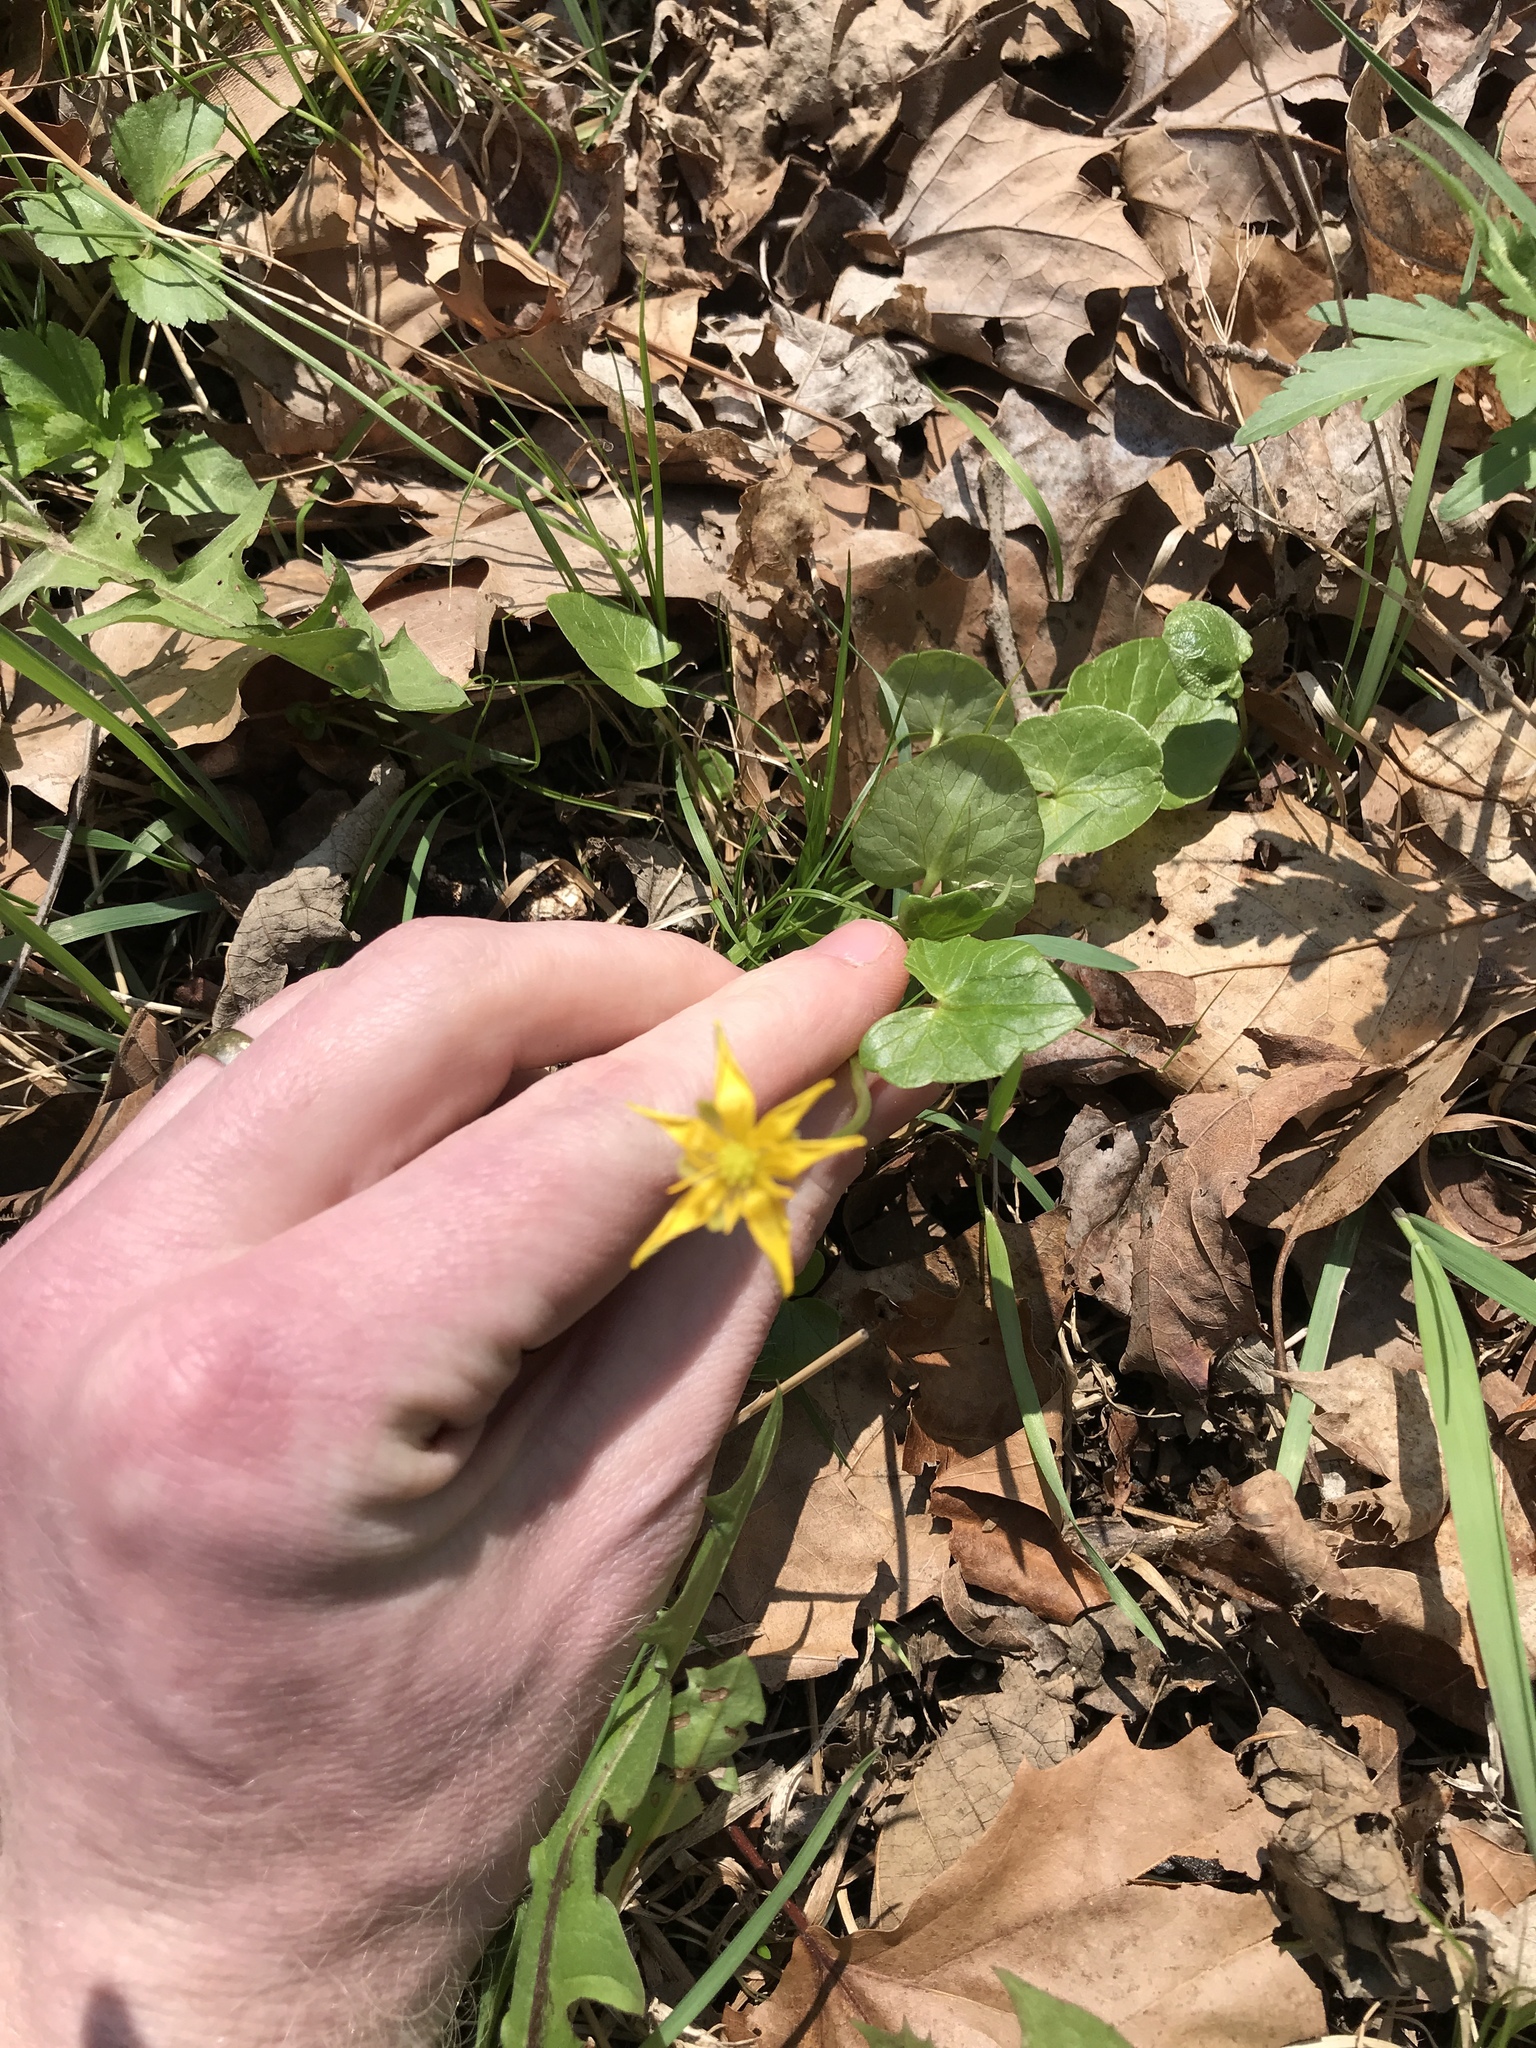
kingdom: Plantae
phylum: Tracheophyta
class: Magnoliopsida
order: Ranunculales
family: Ranunculaceae
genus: Ficaria
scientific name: Ficaria verna
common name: Lesser celandine
